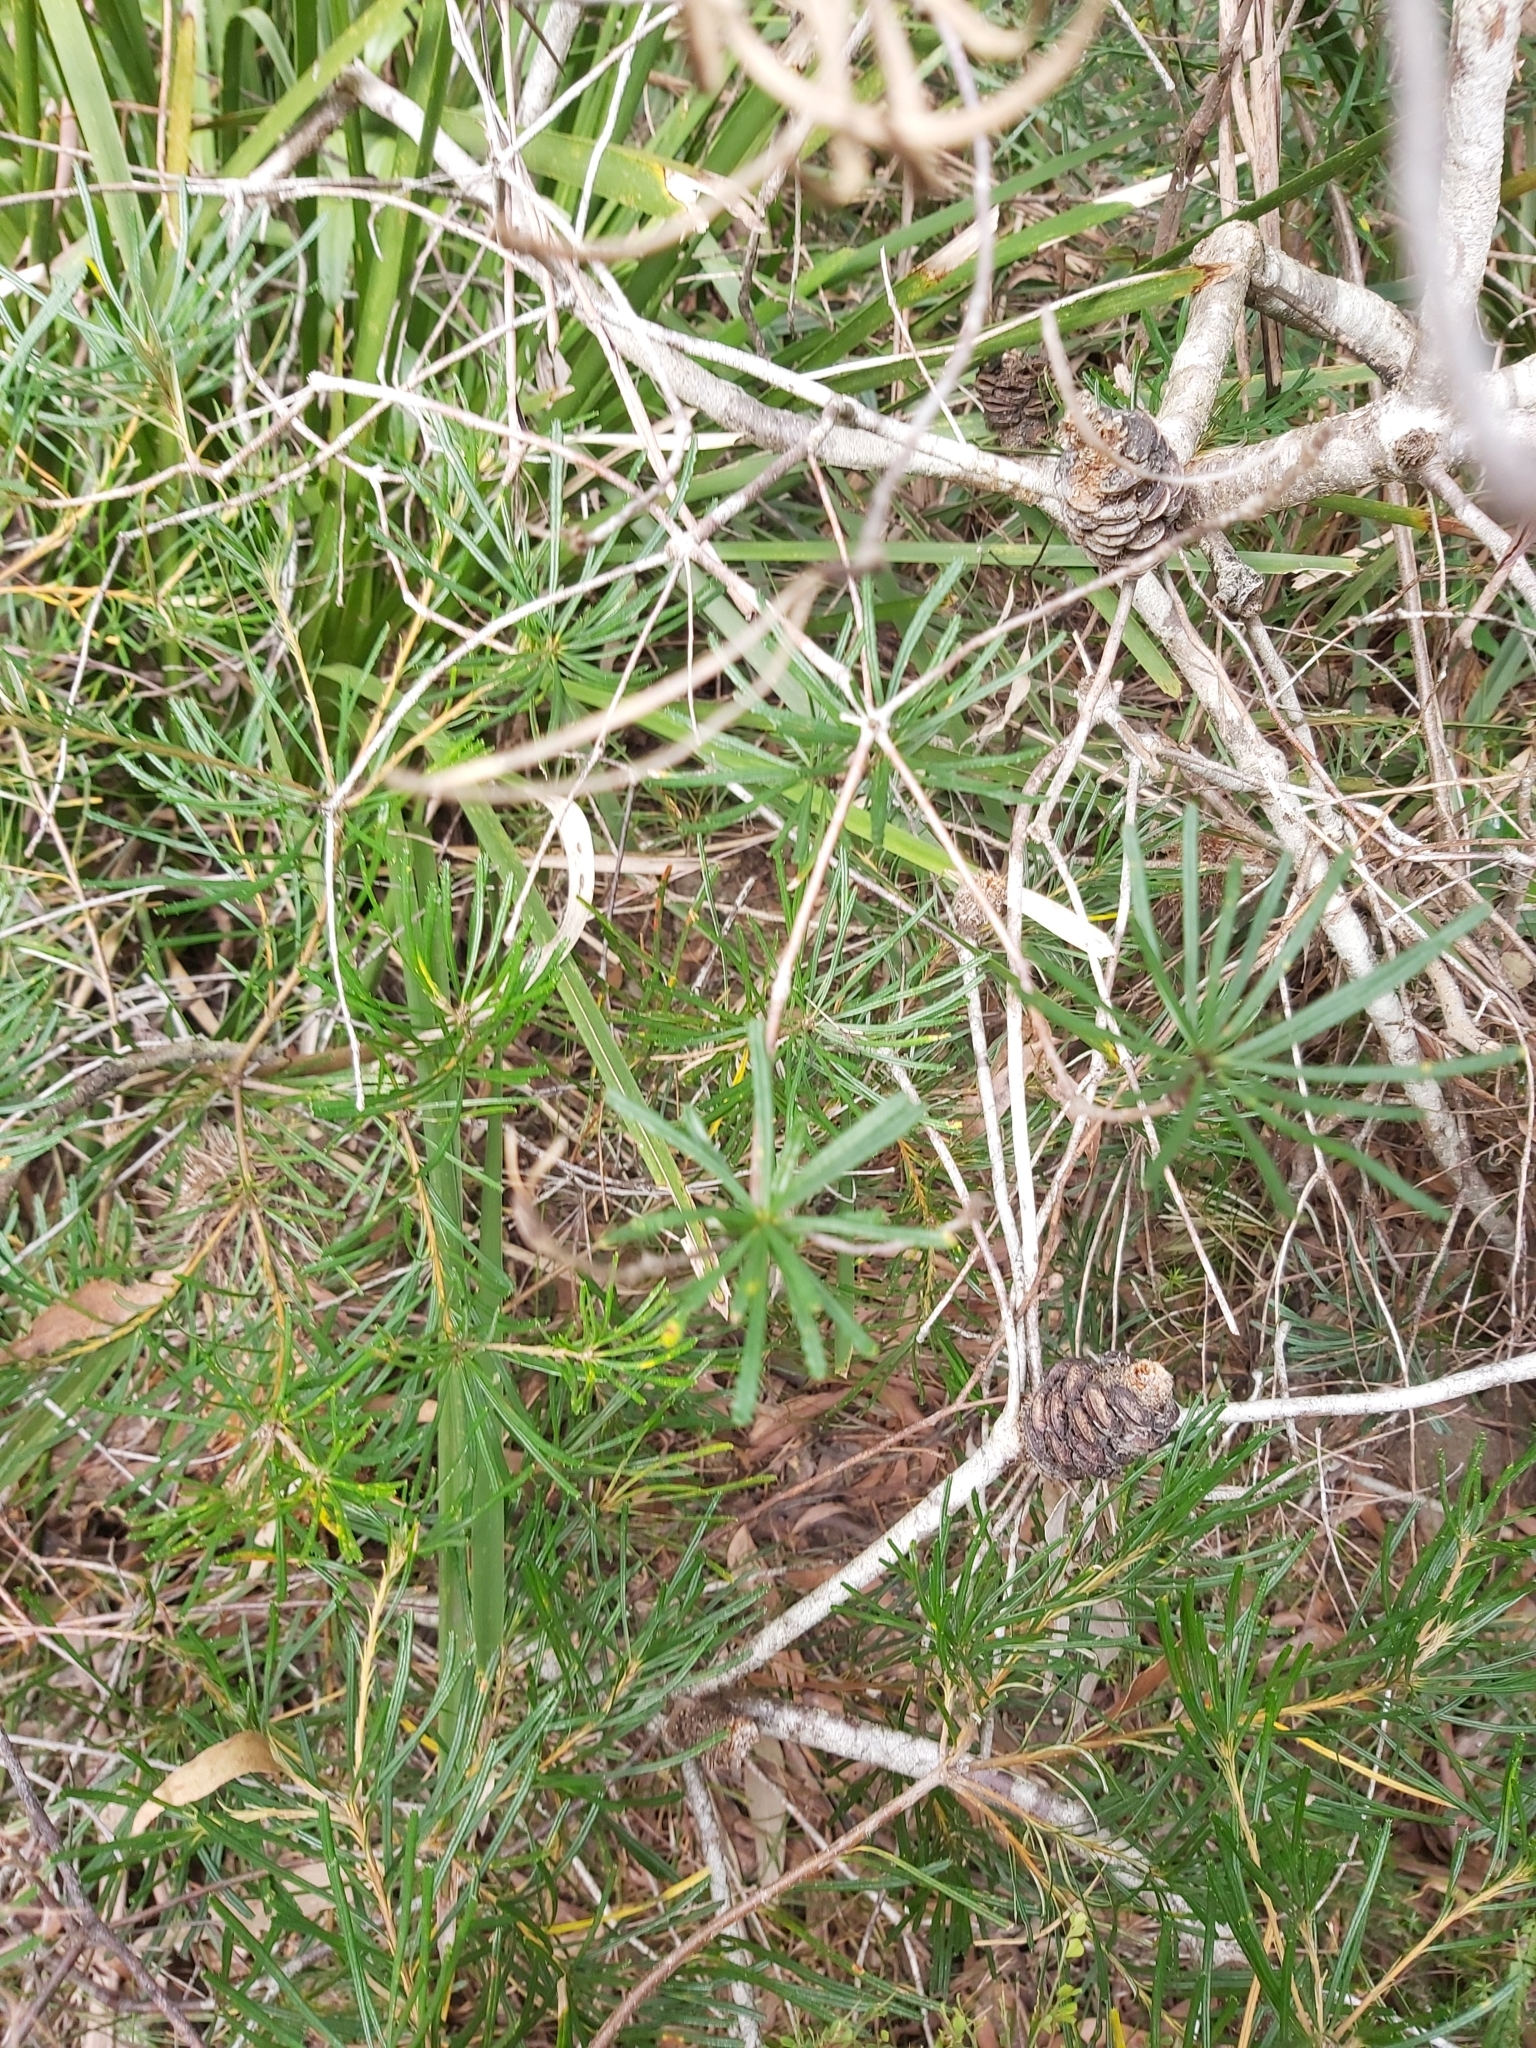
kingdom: Plantae
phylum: Tracheophyta
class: Magnoliopsida
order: Proteales
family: Proteaceae
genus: Banksia
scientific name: Banksia spinulosa
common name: Hairpin banksia
